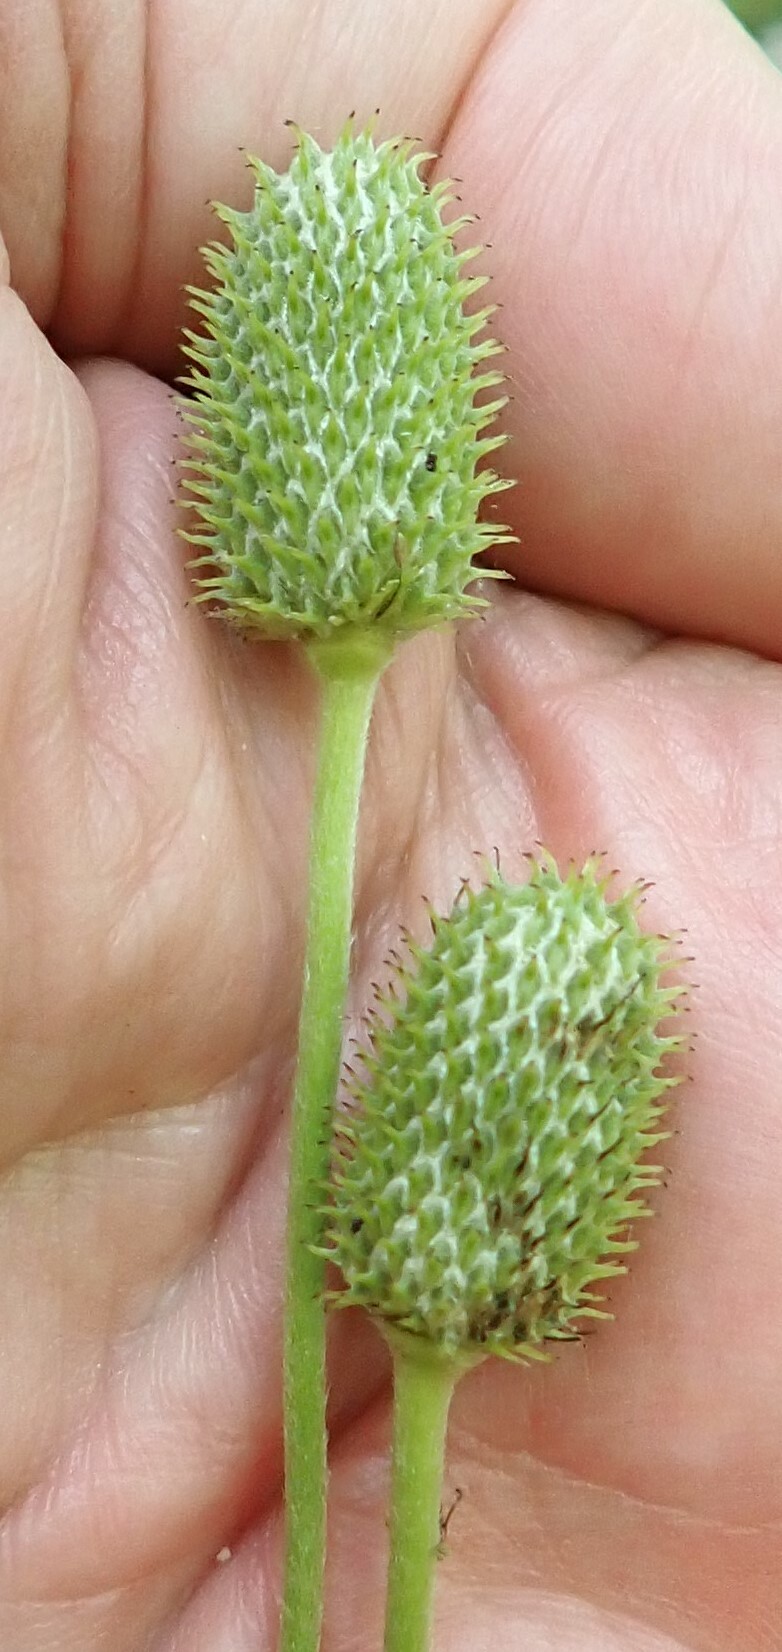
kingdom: Plantae
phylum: Tracheophyta
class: Magnoliopsida
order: Ranunculales
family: Ranunculaceae
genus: Anemone
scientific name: Anemone virginiana
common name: Tall anemone
